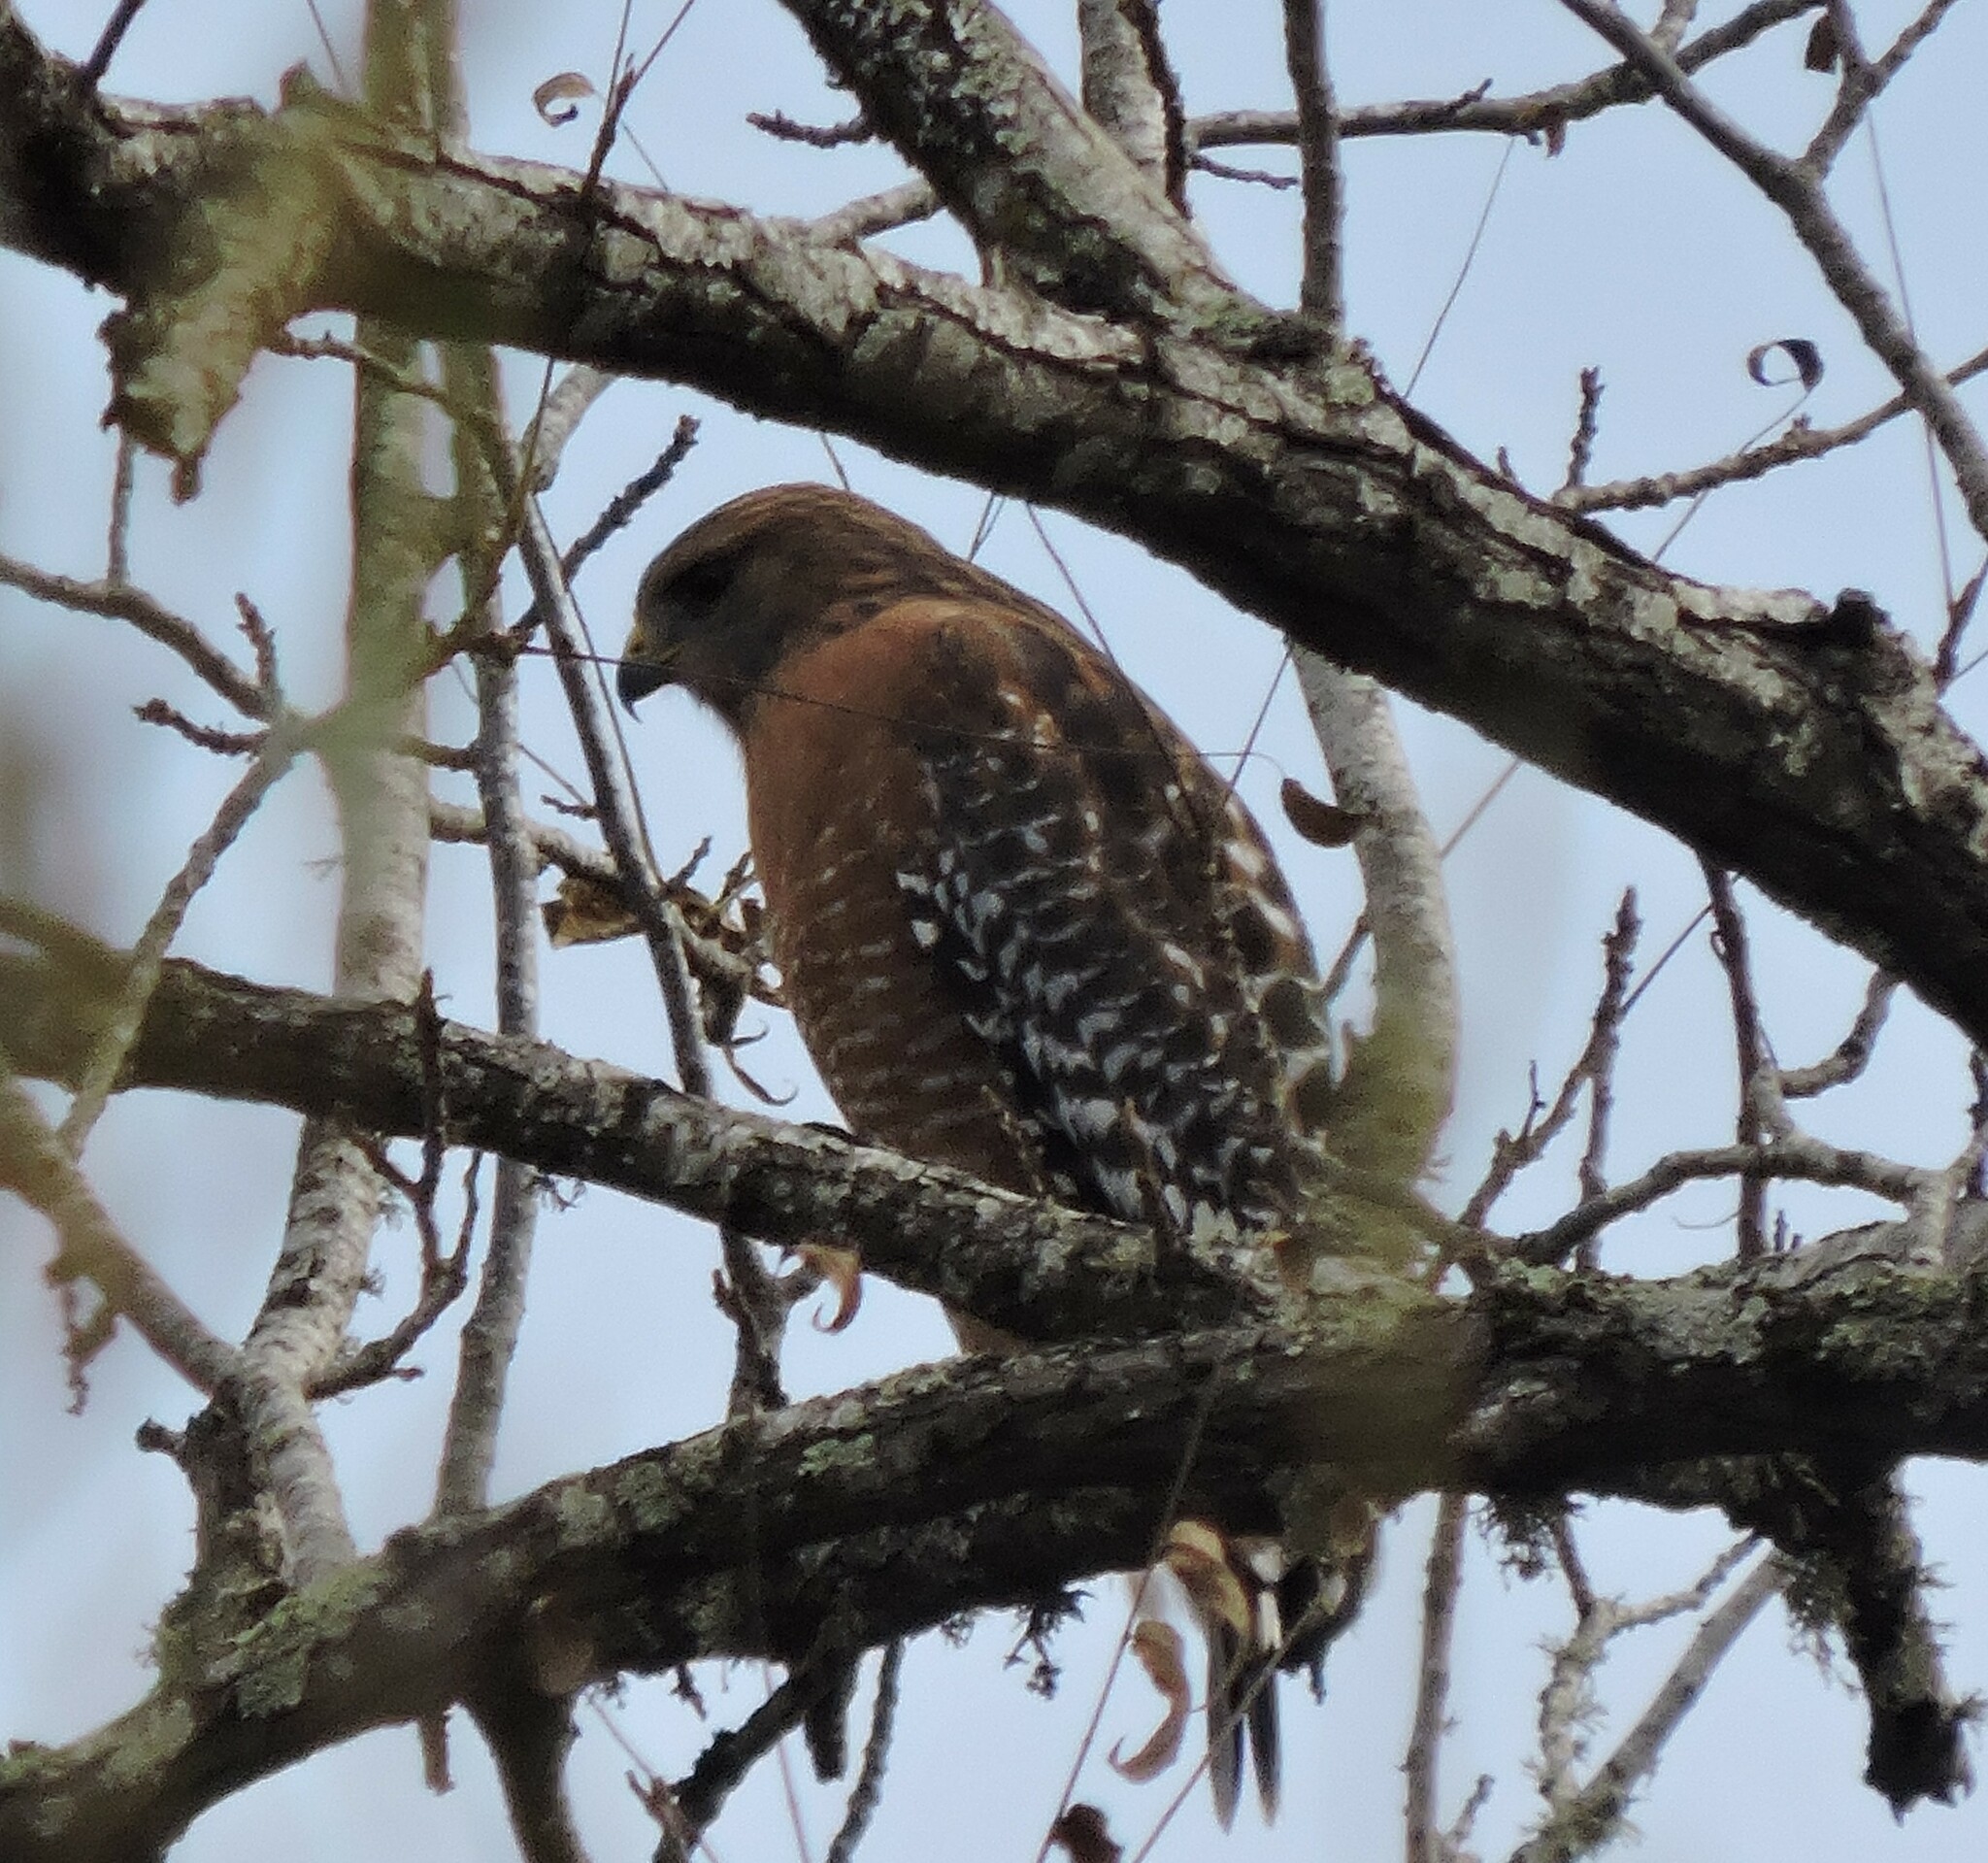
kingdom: Animalia
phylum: Chordata
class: Aves
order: Accipitriformes
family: Accipitridae
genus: Buteo
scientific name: Buteo lineatus
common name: Red-shouldered hawk
